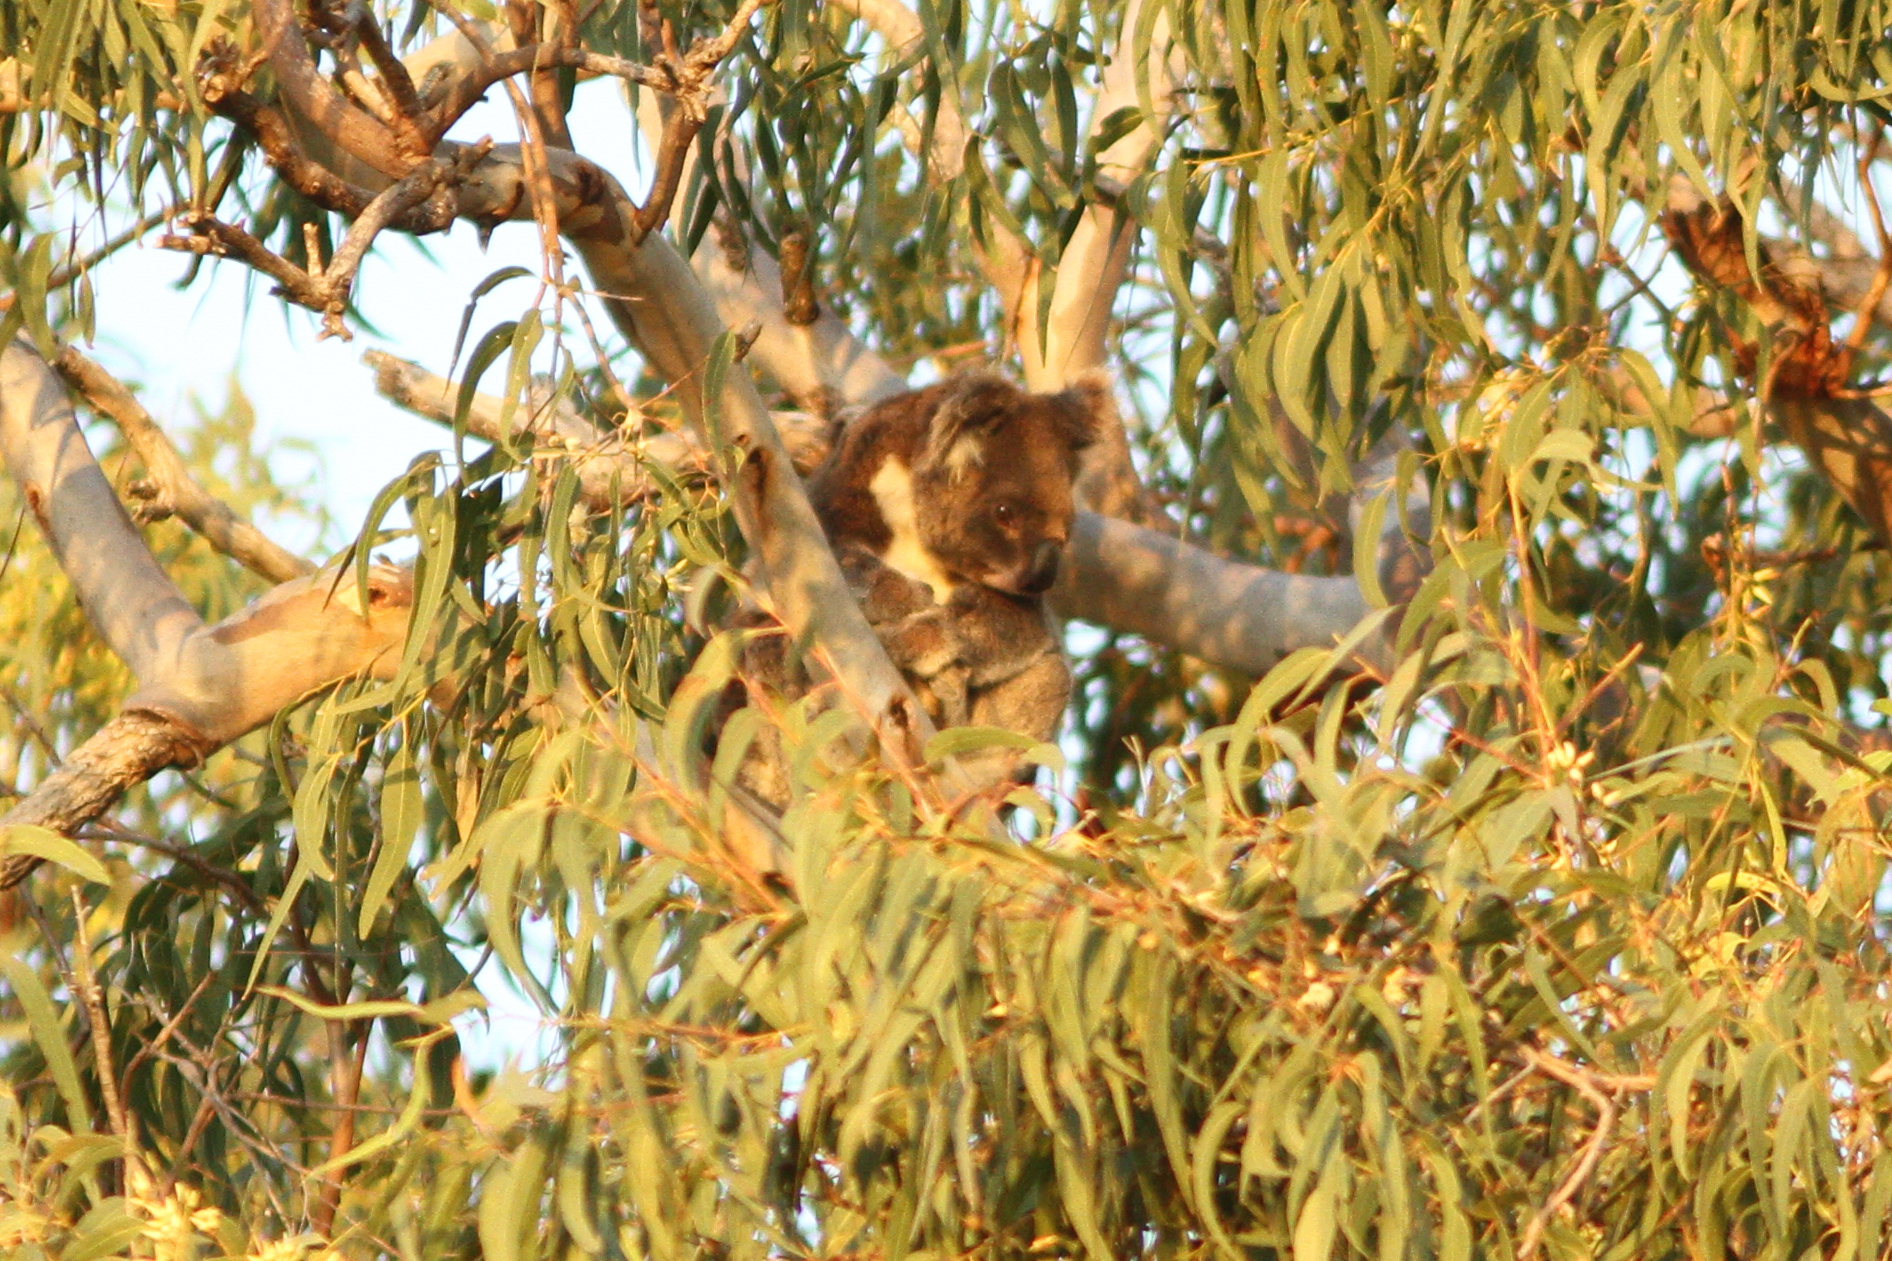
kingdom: Animalia
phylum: Chordata
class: Mammalia
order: Diprotodontia
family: Phascolarctidae
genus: Phascolarctos
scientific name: Phascolarctos cinereus
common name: Koala
